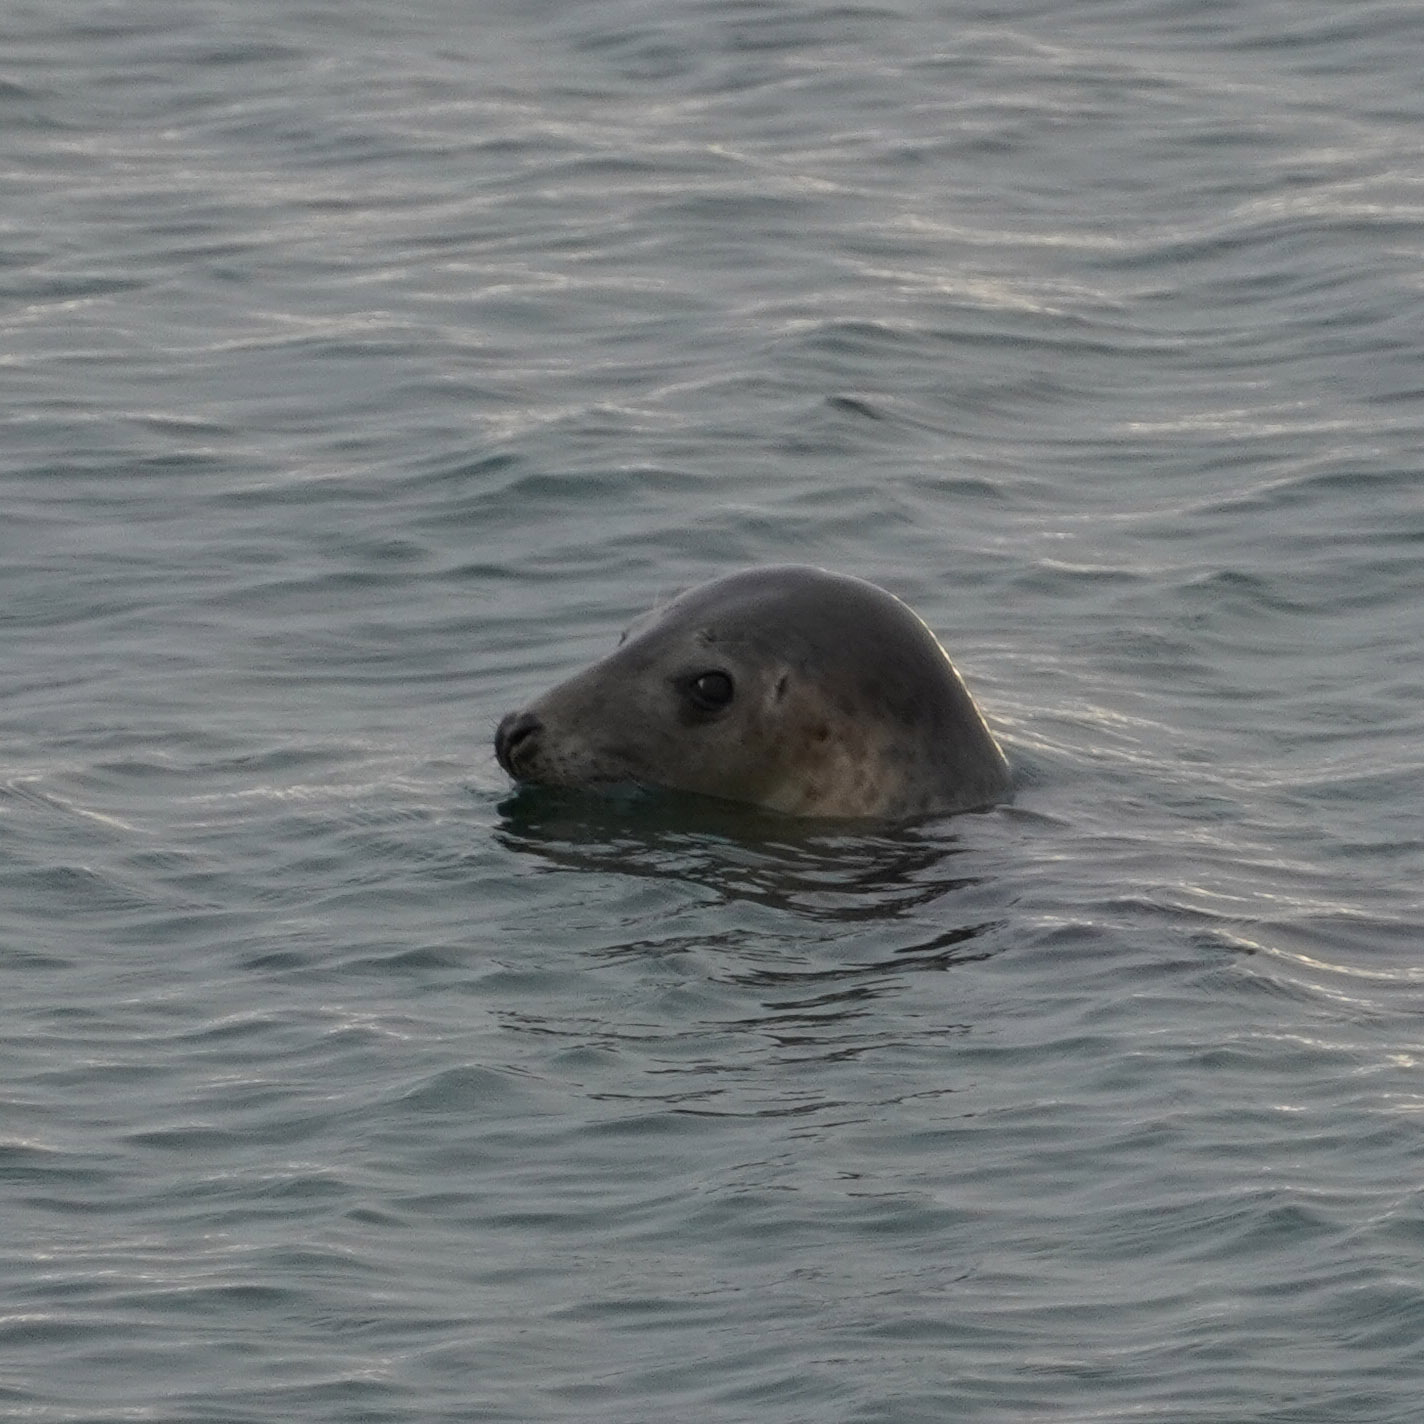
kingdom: Animalia
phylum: Chordata
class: Mammalia
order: Carnivora
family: Phocidae
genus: Halichoerus
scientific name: Halichoerus grypus
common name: Grey seal
